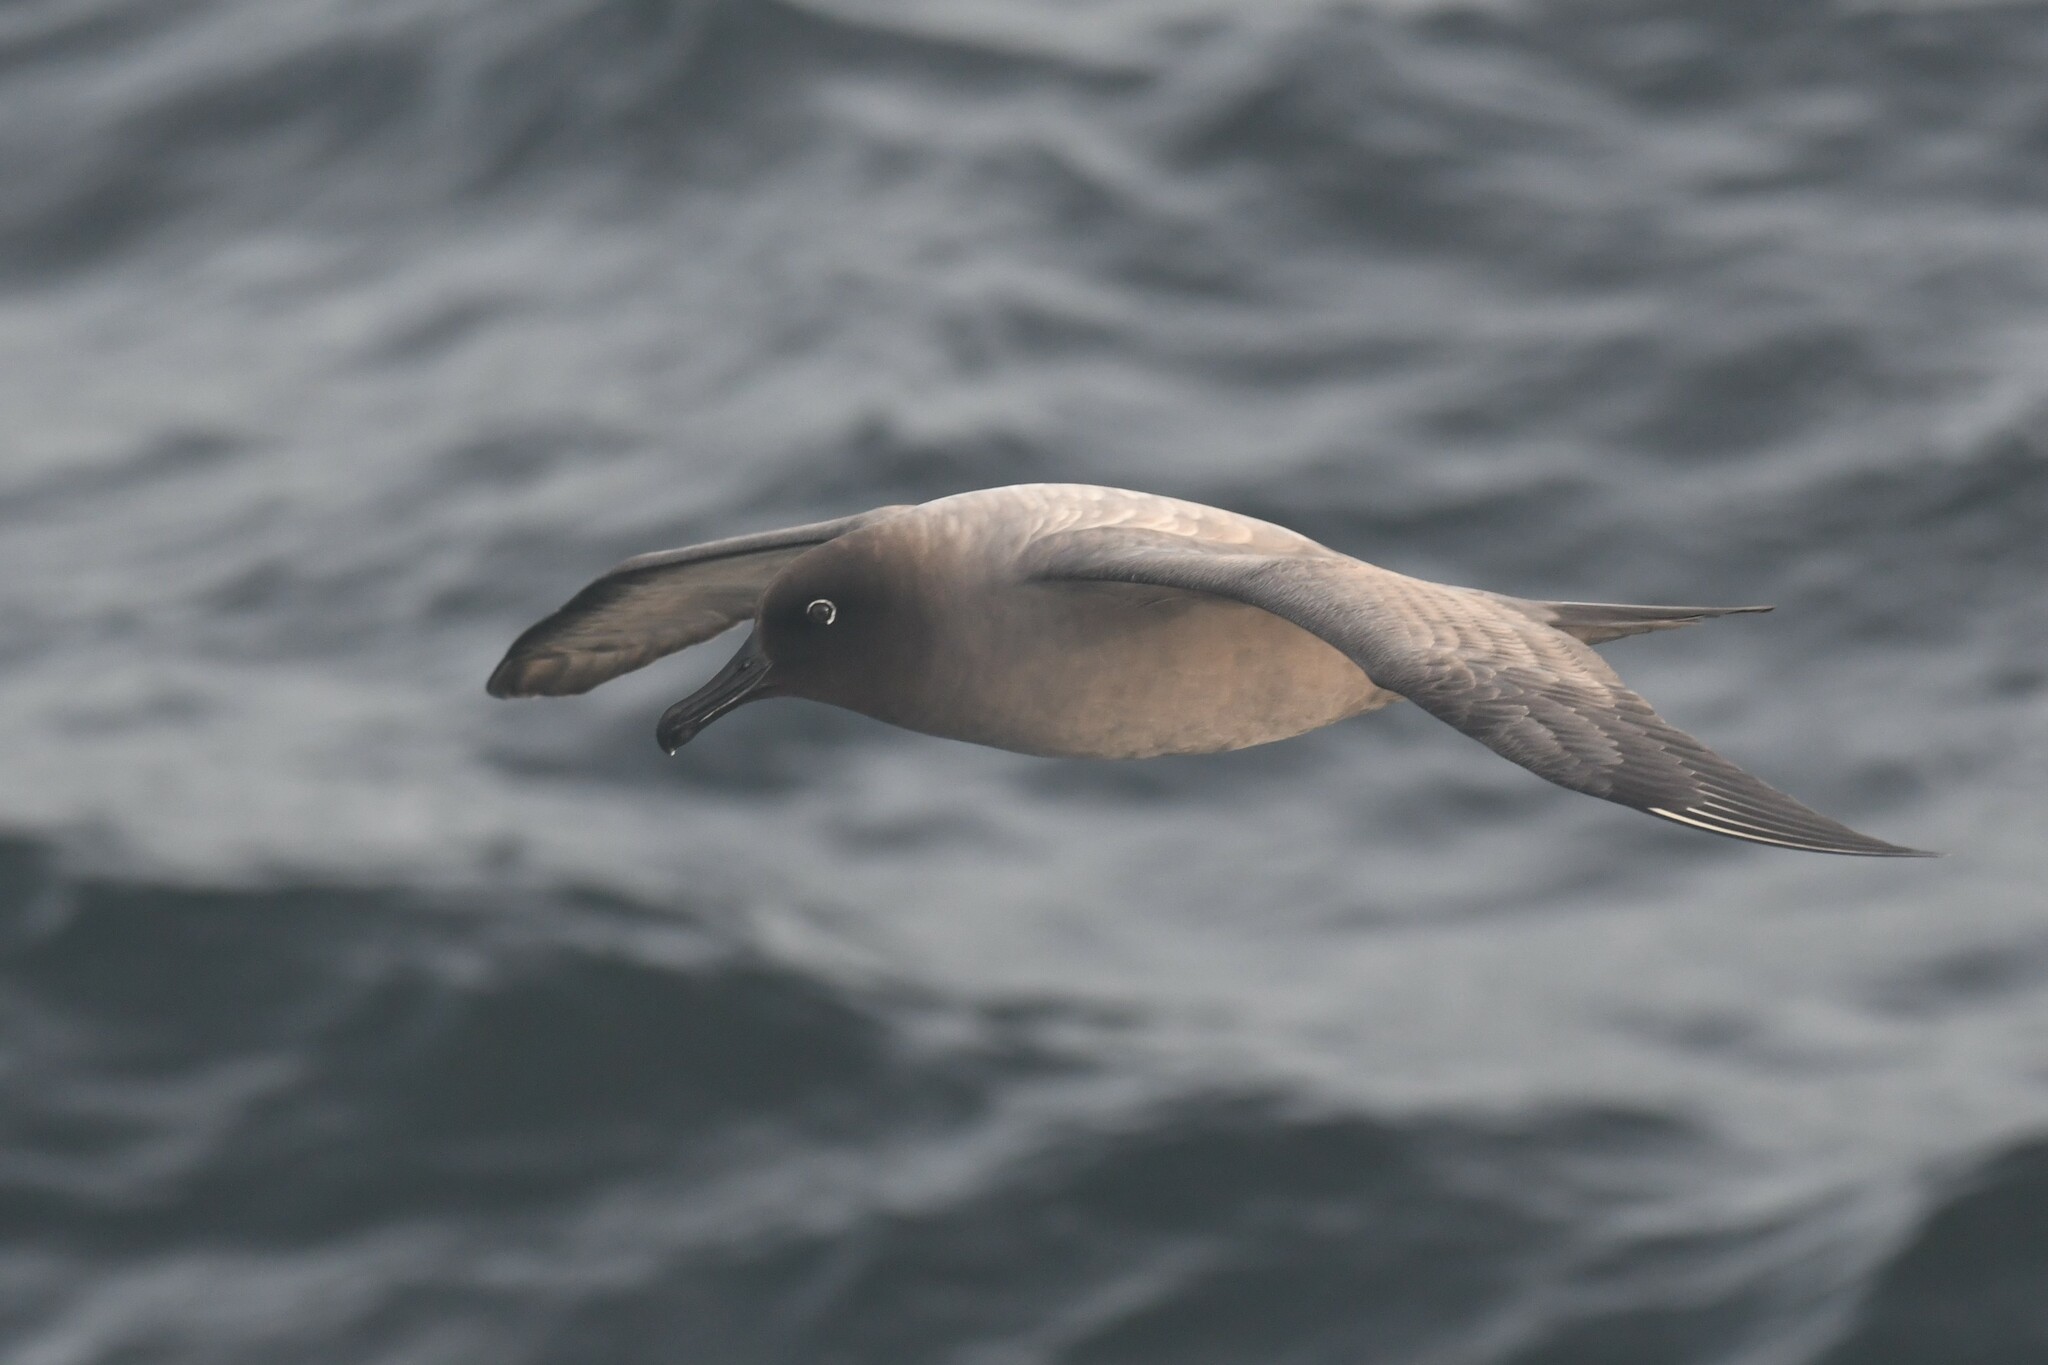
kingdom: Animalia
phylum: Chordata
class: Aves
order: Procellariiformes
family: Diomedeidae
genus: Phoebetria
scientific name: Phoebetria palpebrata
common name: Light-mantled albatross
